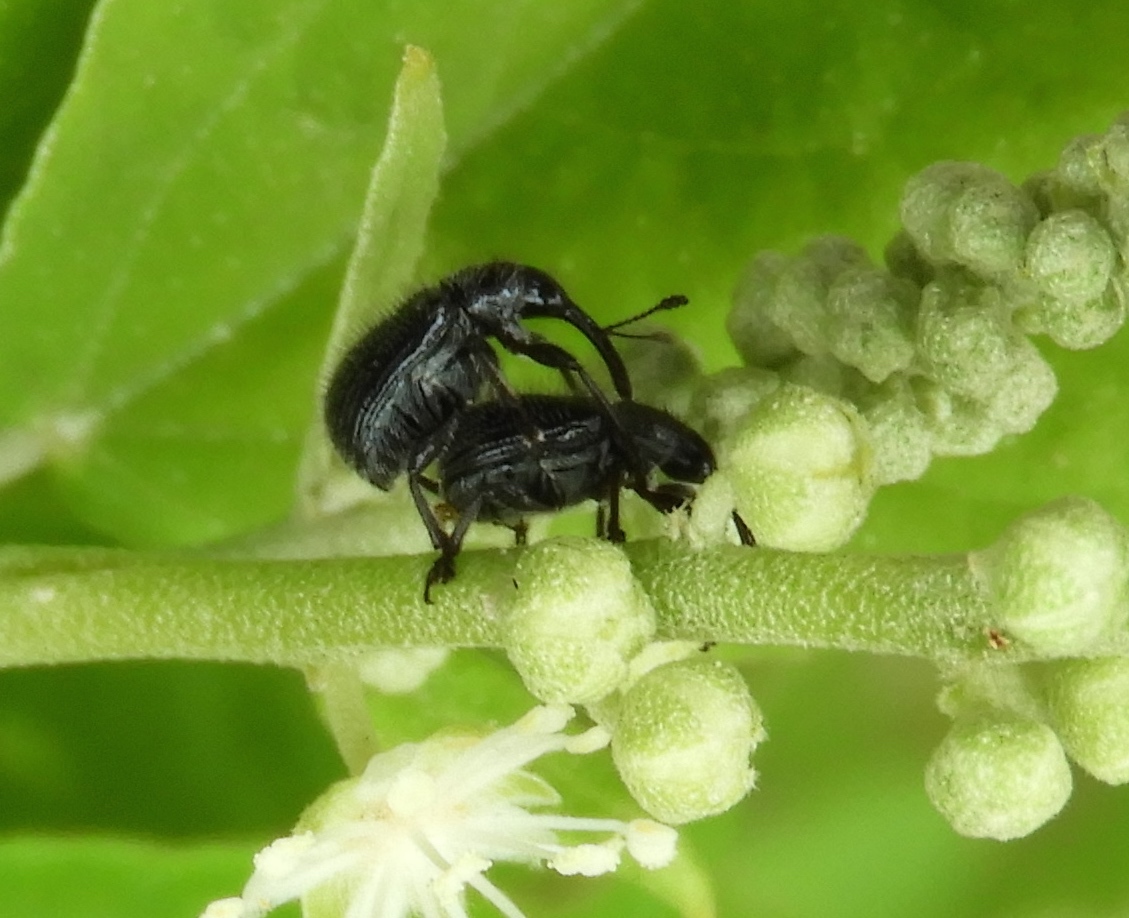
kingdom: Animalia
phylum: Arthropoda
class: Insecta
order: Coleoptera
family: Rhynchitidae
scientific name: Rhynchitidae
